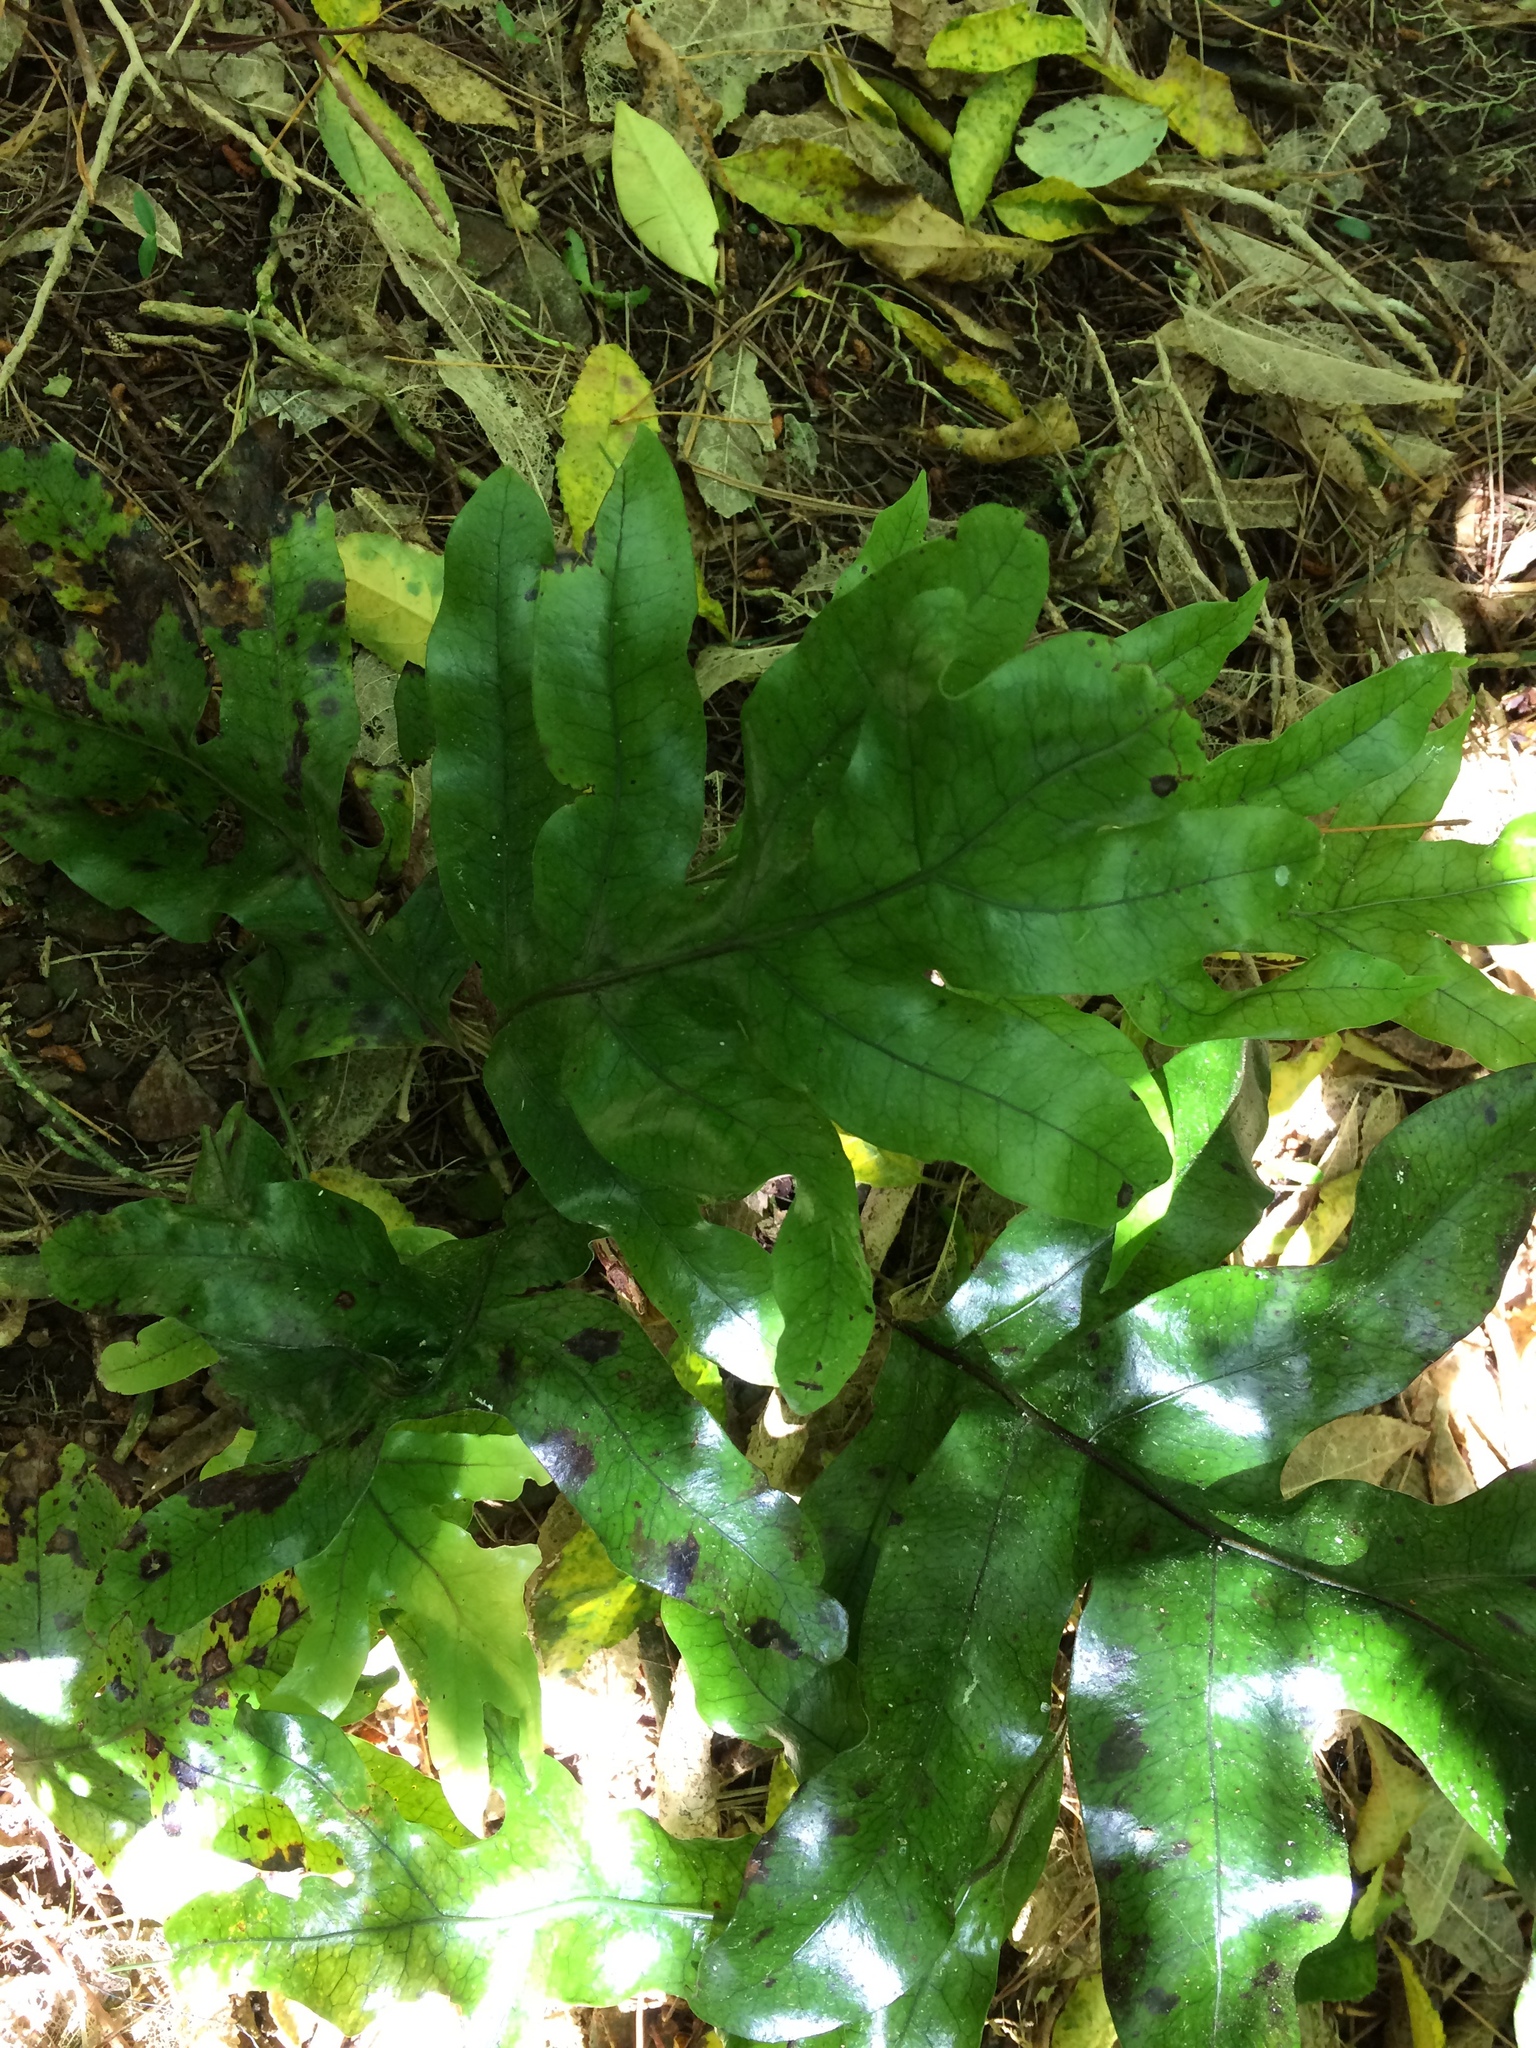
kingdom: Plantae
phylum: Tracheophyta
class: Polypodiopsida
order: Polypodiales
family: Polypodiaceae
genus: Lecanopteris
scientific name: Lecanopteris pustulata
